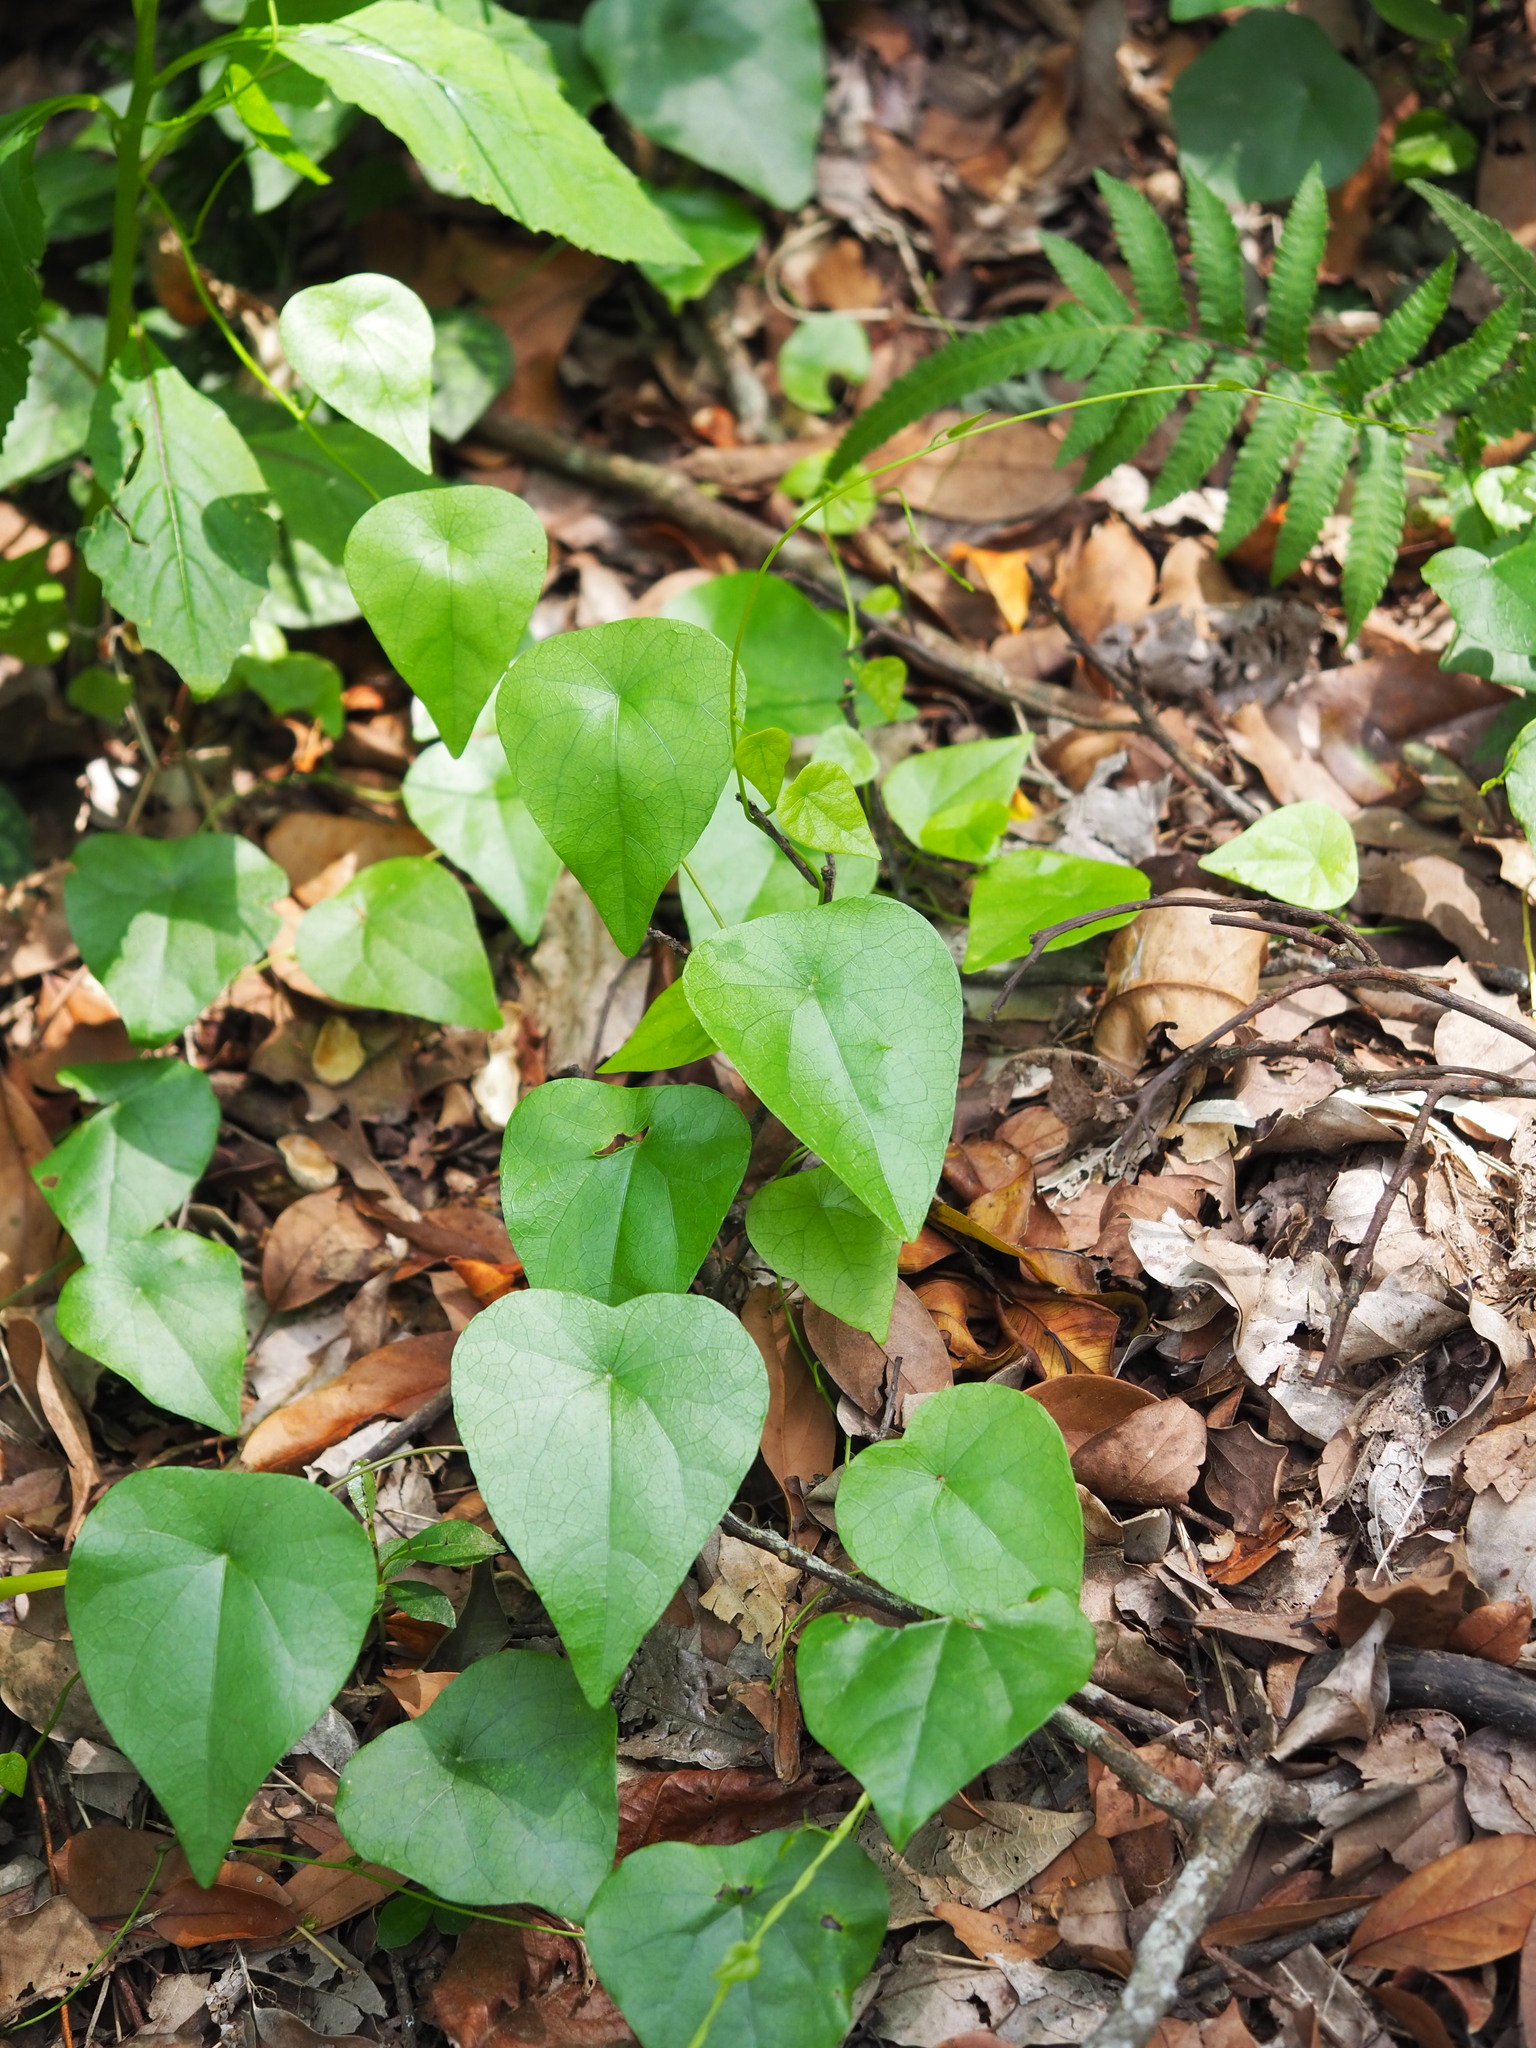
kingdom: Plantae
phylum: Tracheophyta
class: Magnoliopsida
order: Ranunculales
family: Menispermaceae
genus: Stephania
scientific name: Stephania japonica
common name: Snake vine
